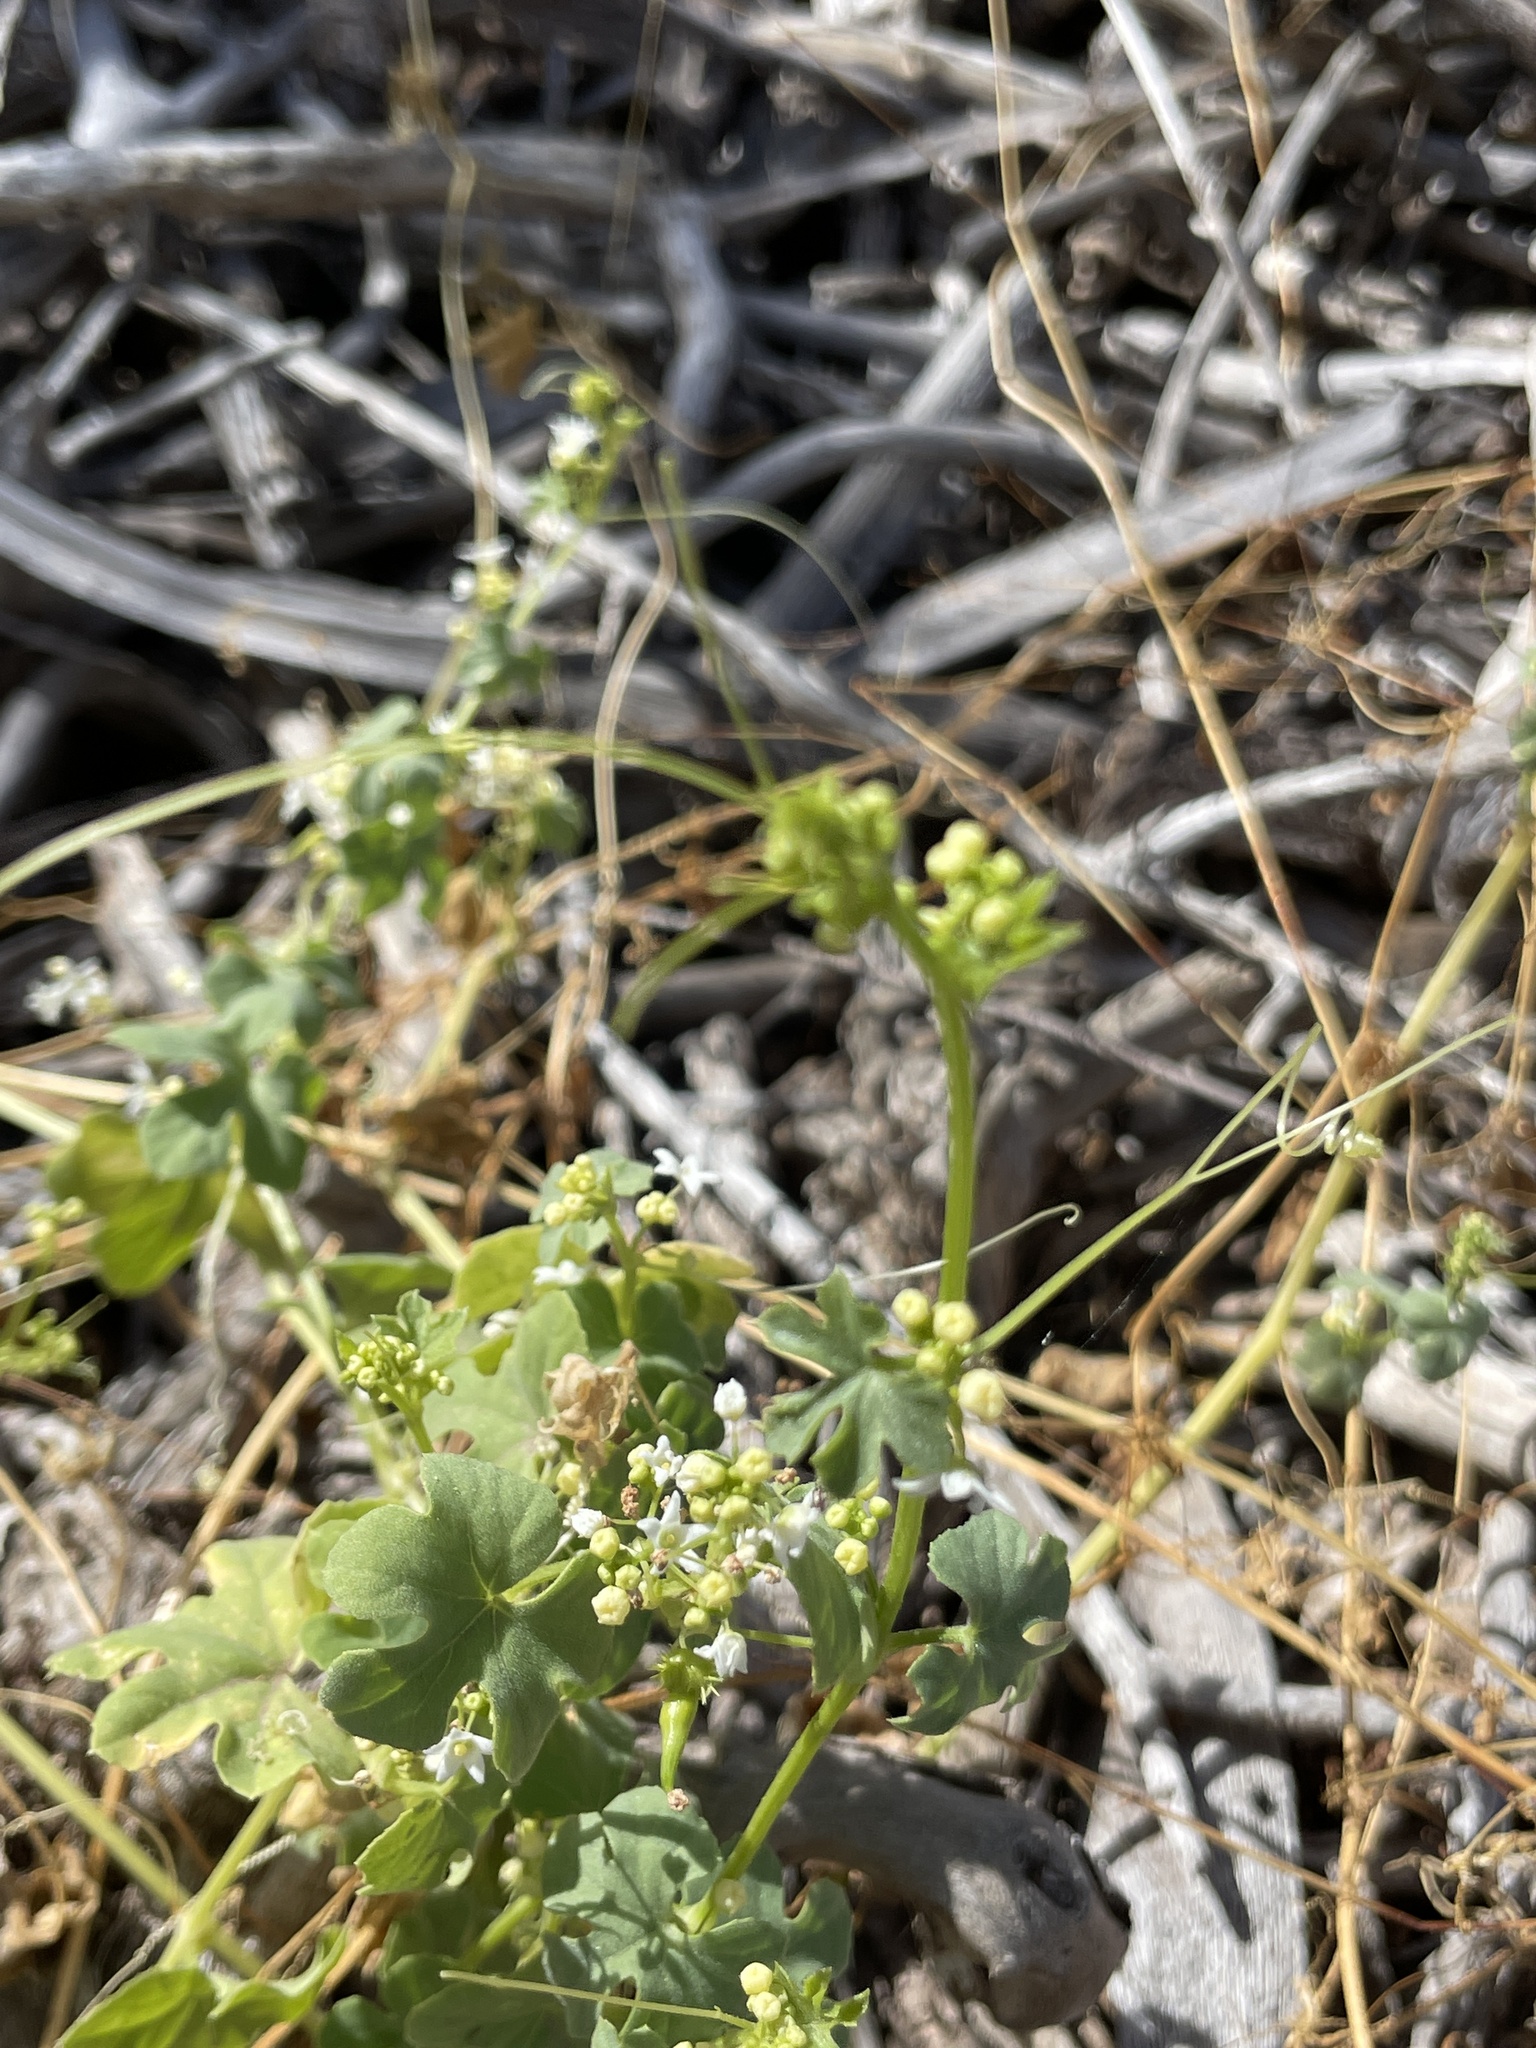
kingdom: Plantae
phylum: Tracheophyta
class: Magnoliopsida
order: Cucurbitales
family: Cucurbitaceae
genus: Echinopepon
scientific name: Echinopepon insularis
